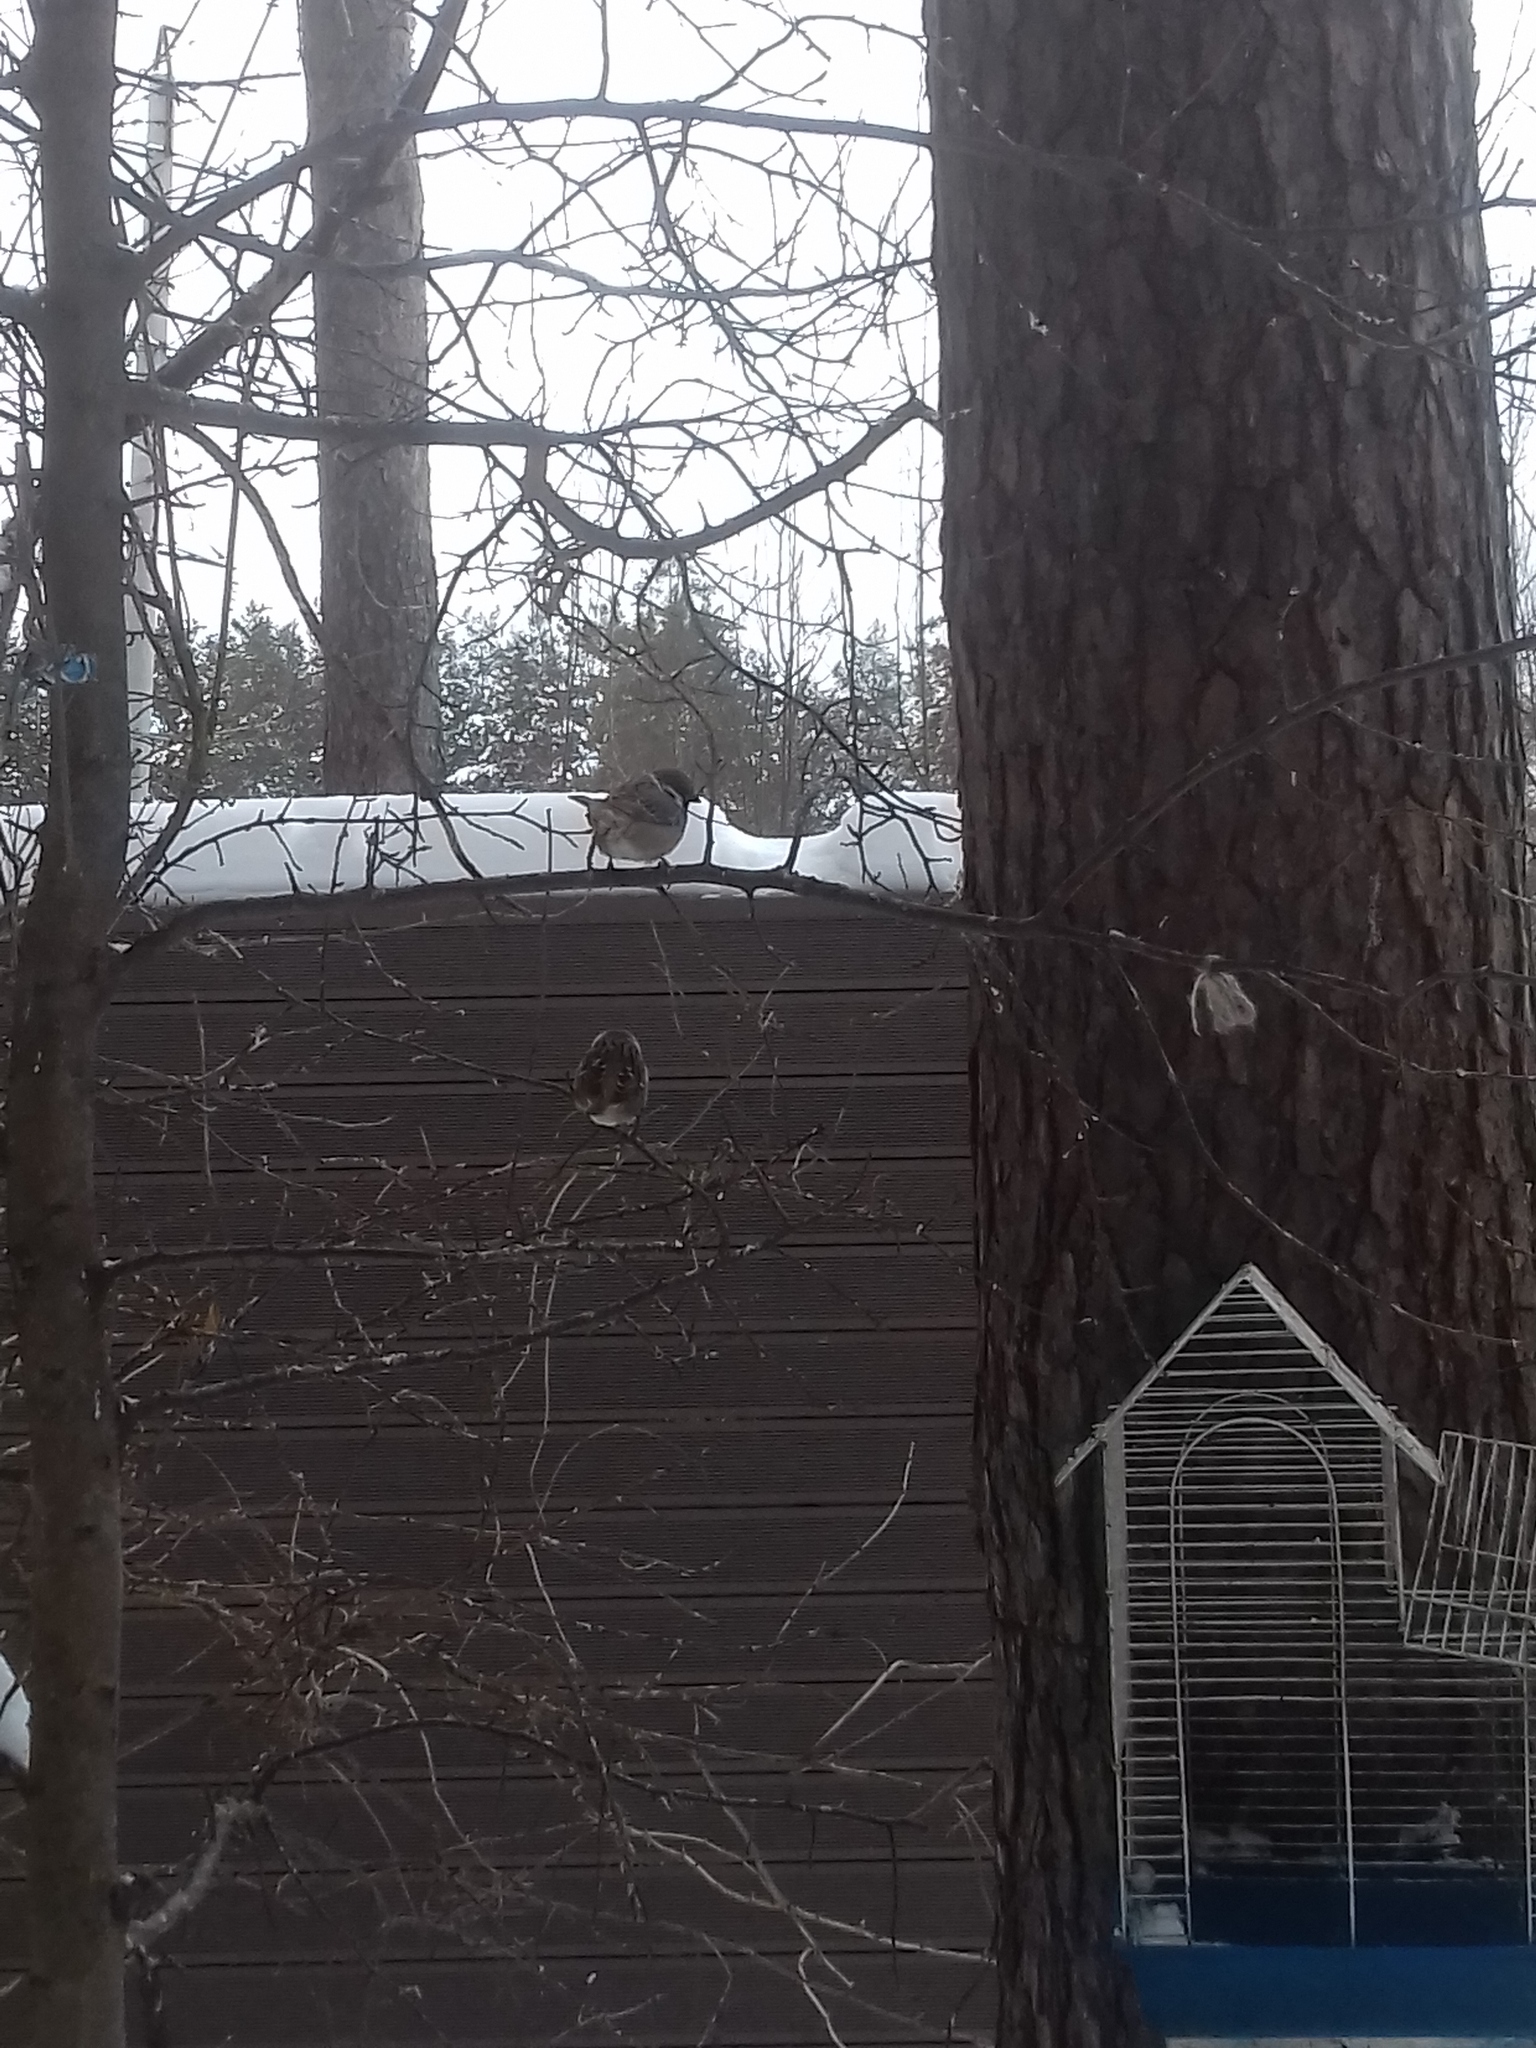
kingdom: Animalia
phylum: Chordata
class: Aves
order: Passeriformes
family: Passeridae
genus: Passer
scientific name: Passer montanus
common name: Eurasian tree sparrow
